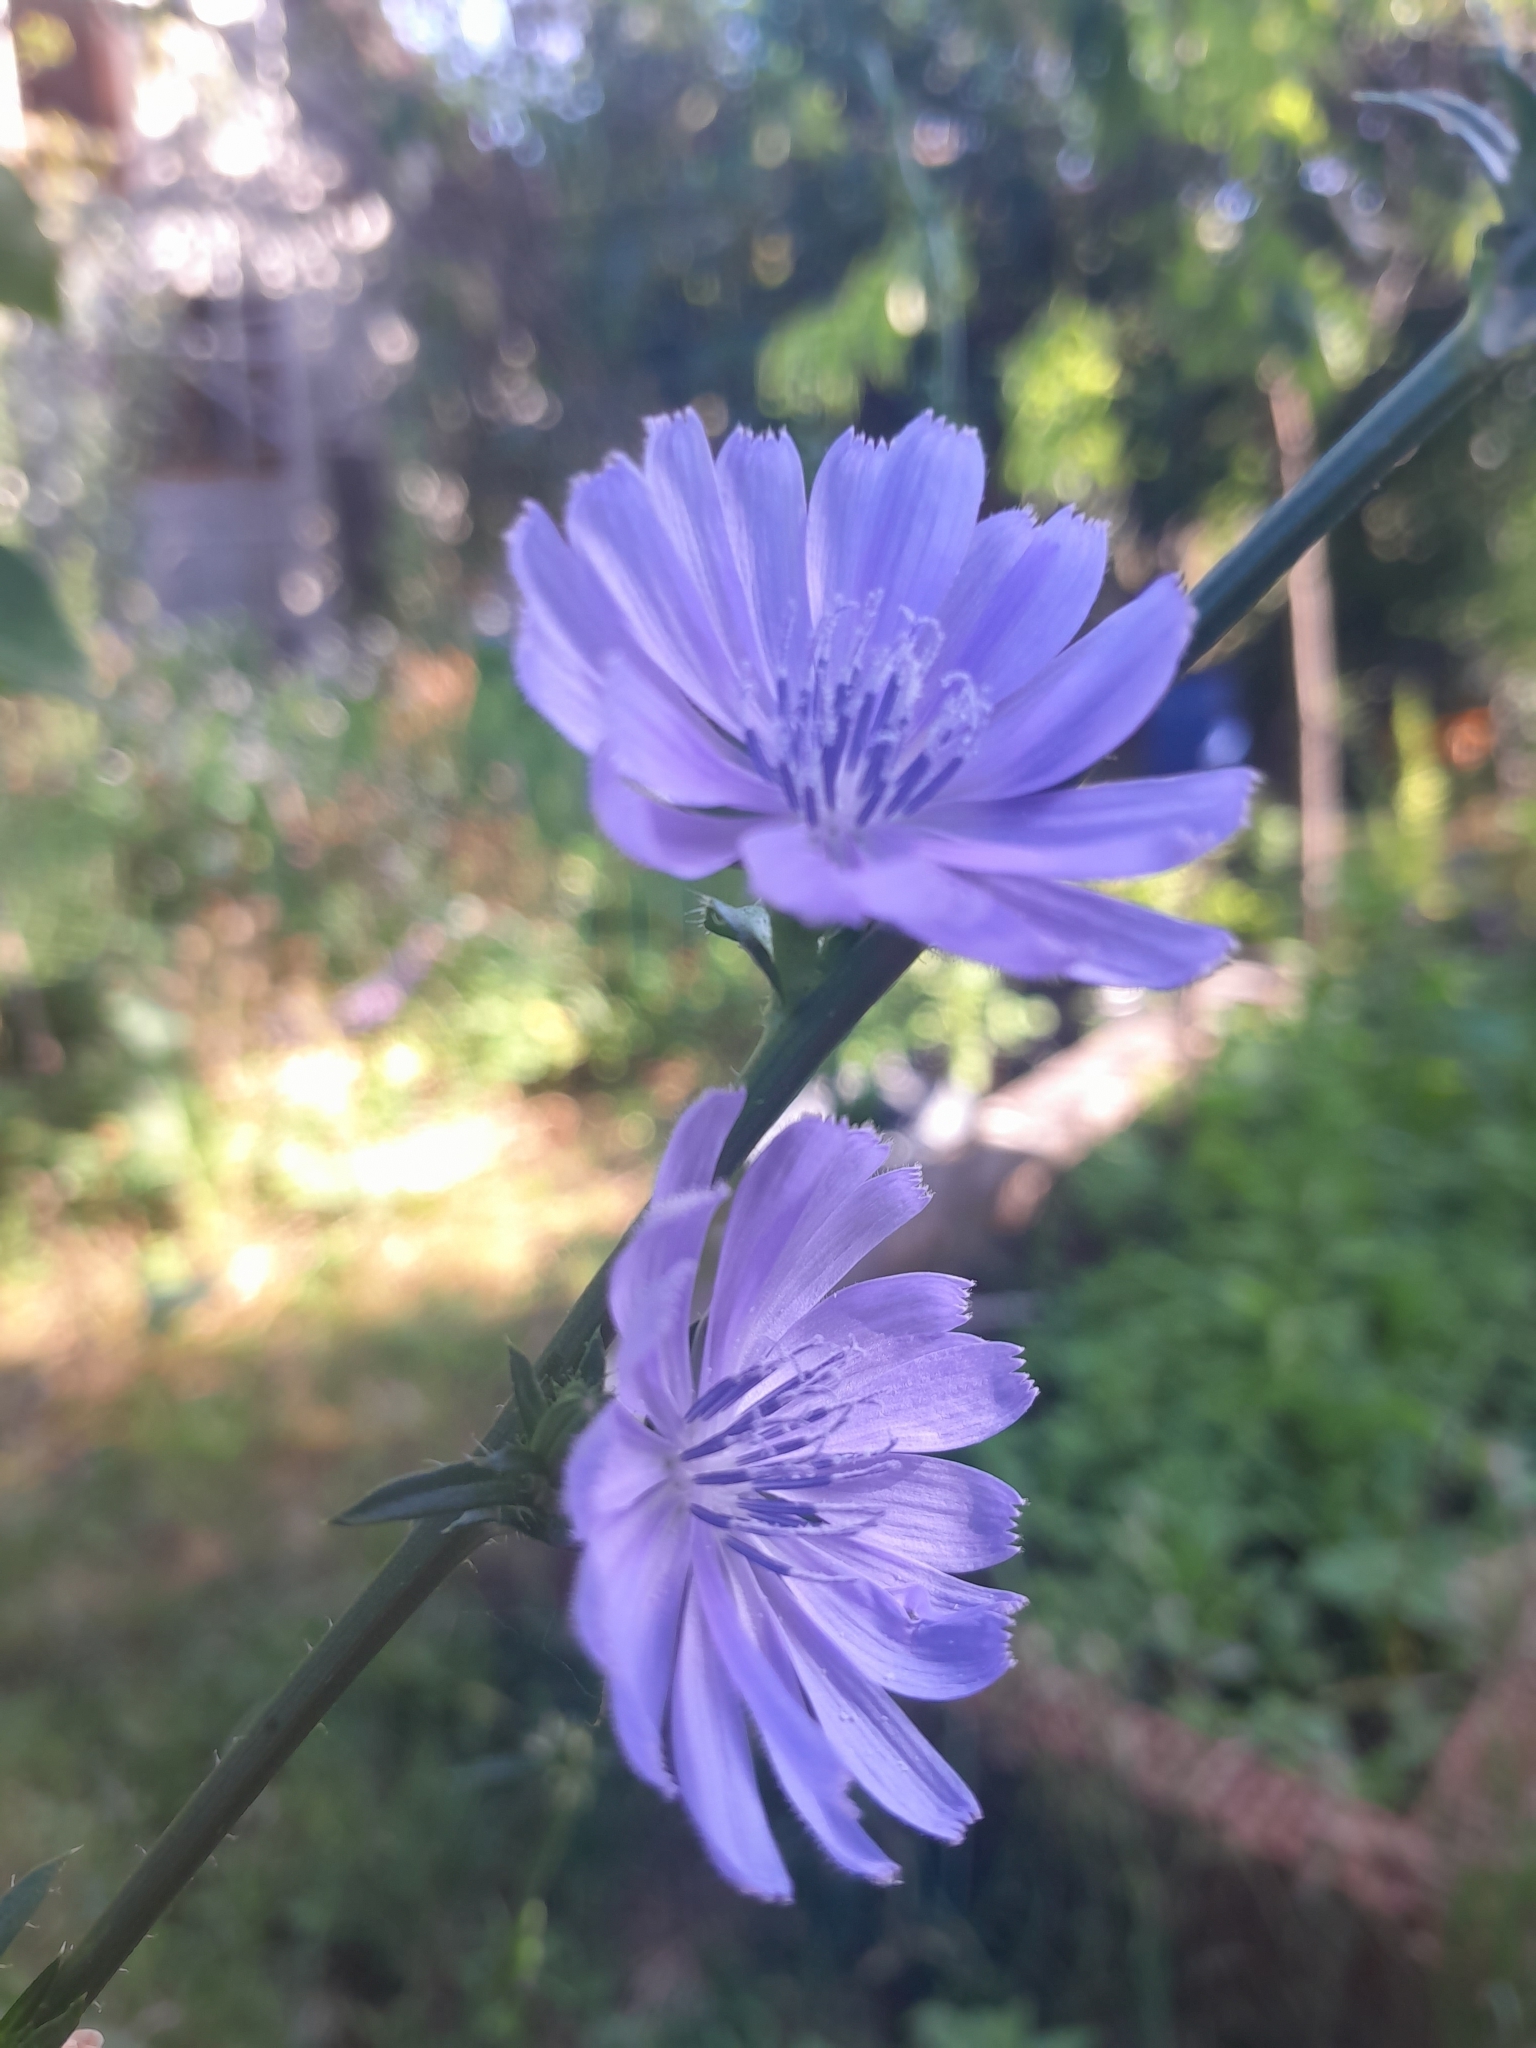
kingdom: Plantae
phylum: Tracheophyta
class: Magnoliopsida
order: Asterales
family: Asteraceae
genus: Cichorium
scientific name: Cichorium intybus
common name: Chicory
